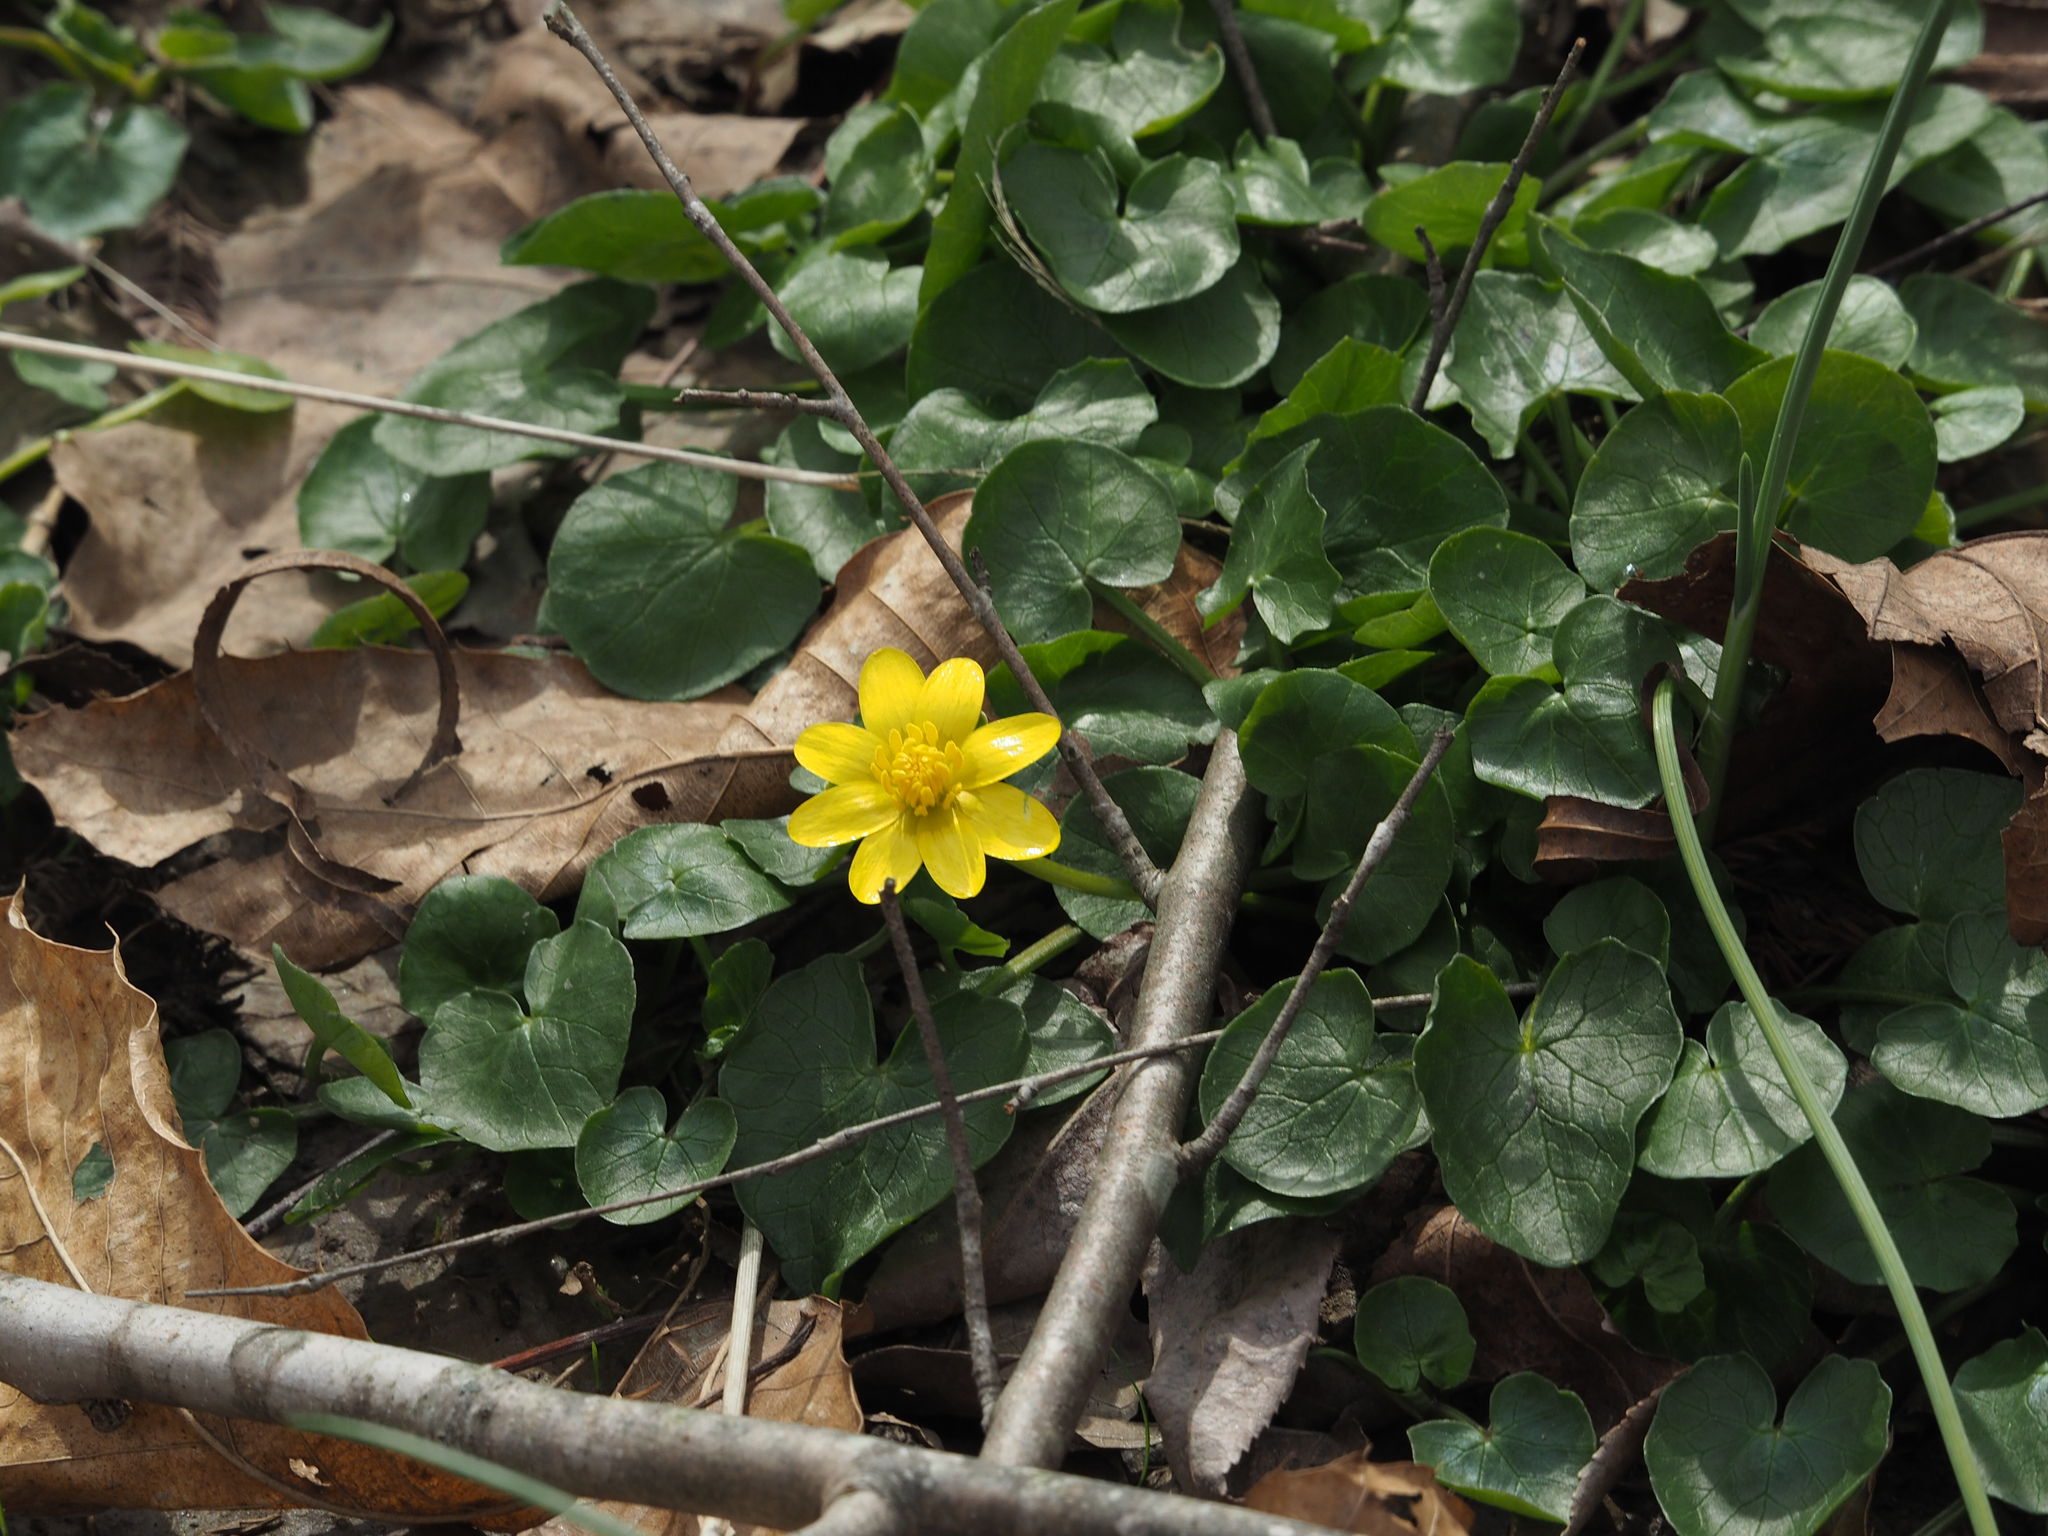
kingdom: Plantae
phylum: Tracheophyta
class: Magnoliopsida
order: Ranunculales
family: Ranunculaceae
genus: Ficaria
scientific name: Ficaria verna
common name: Lesser celandine
